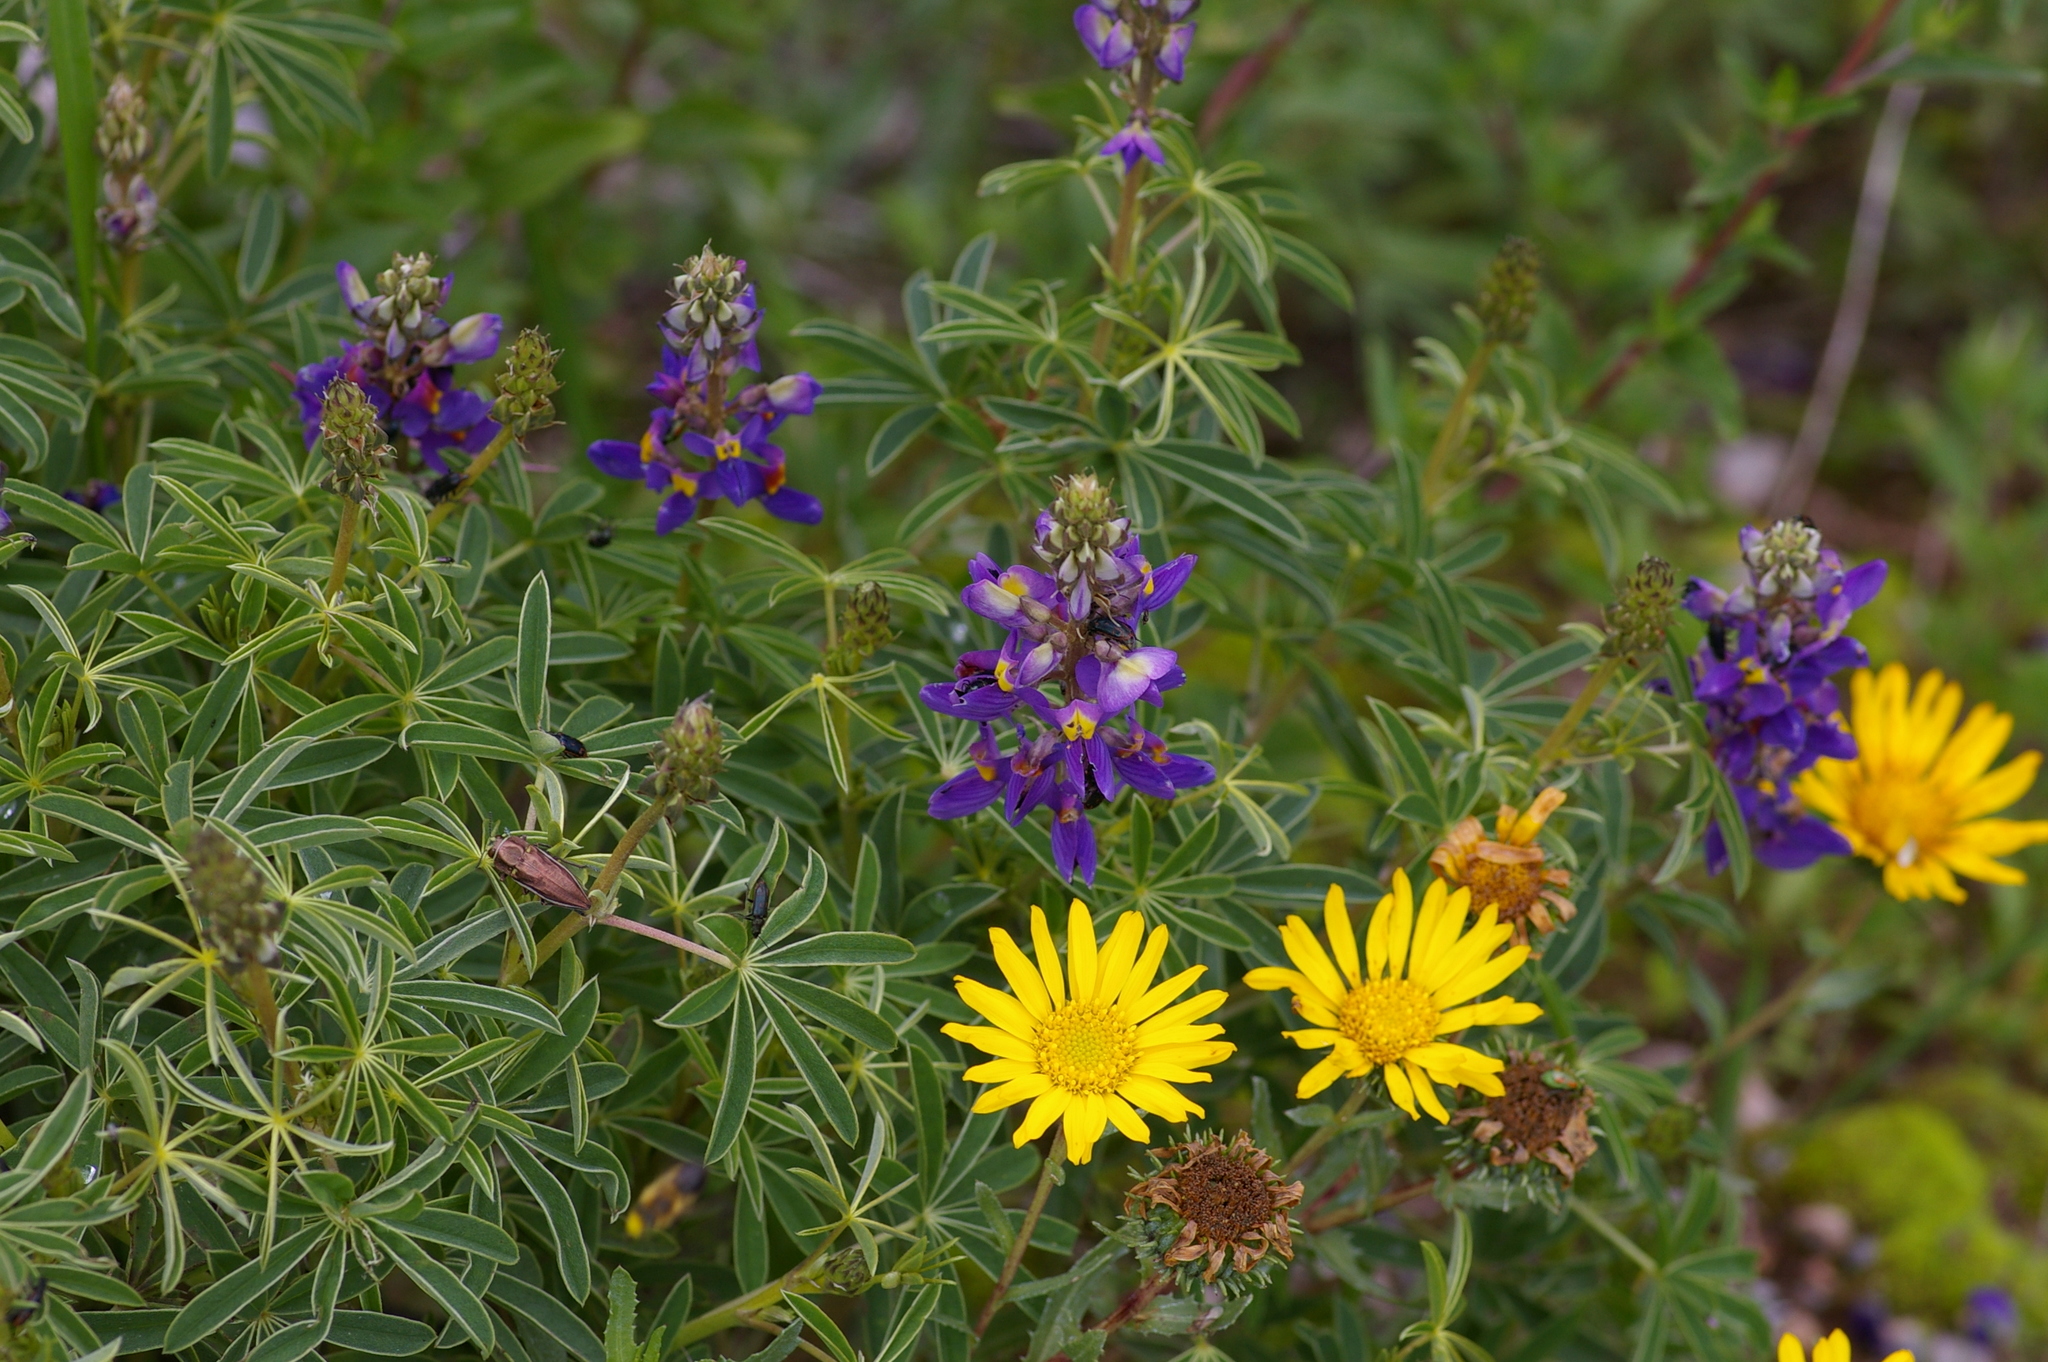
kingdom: Plantae
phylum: Tracheophyta
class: Magnoliopsida
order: Fabales
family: Fabaceae
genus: Lupinus
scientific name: Lupinus paniculatus
